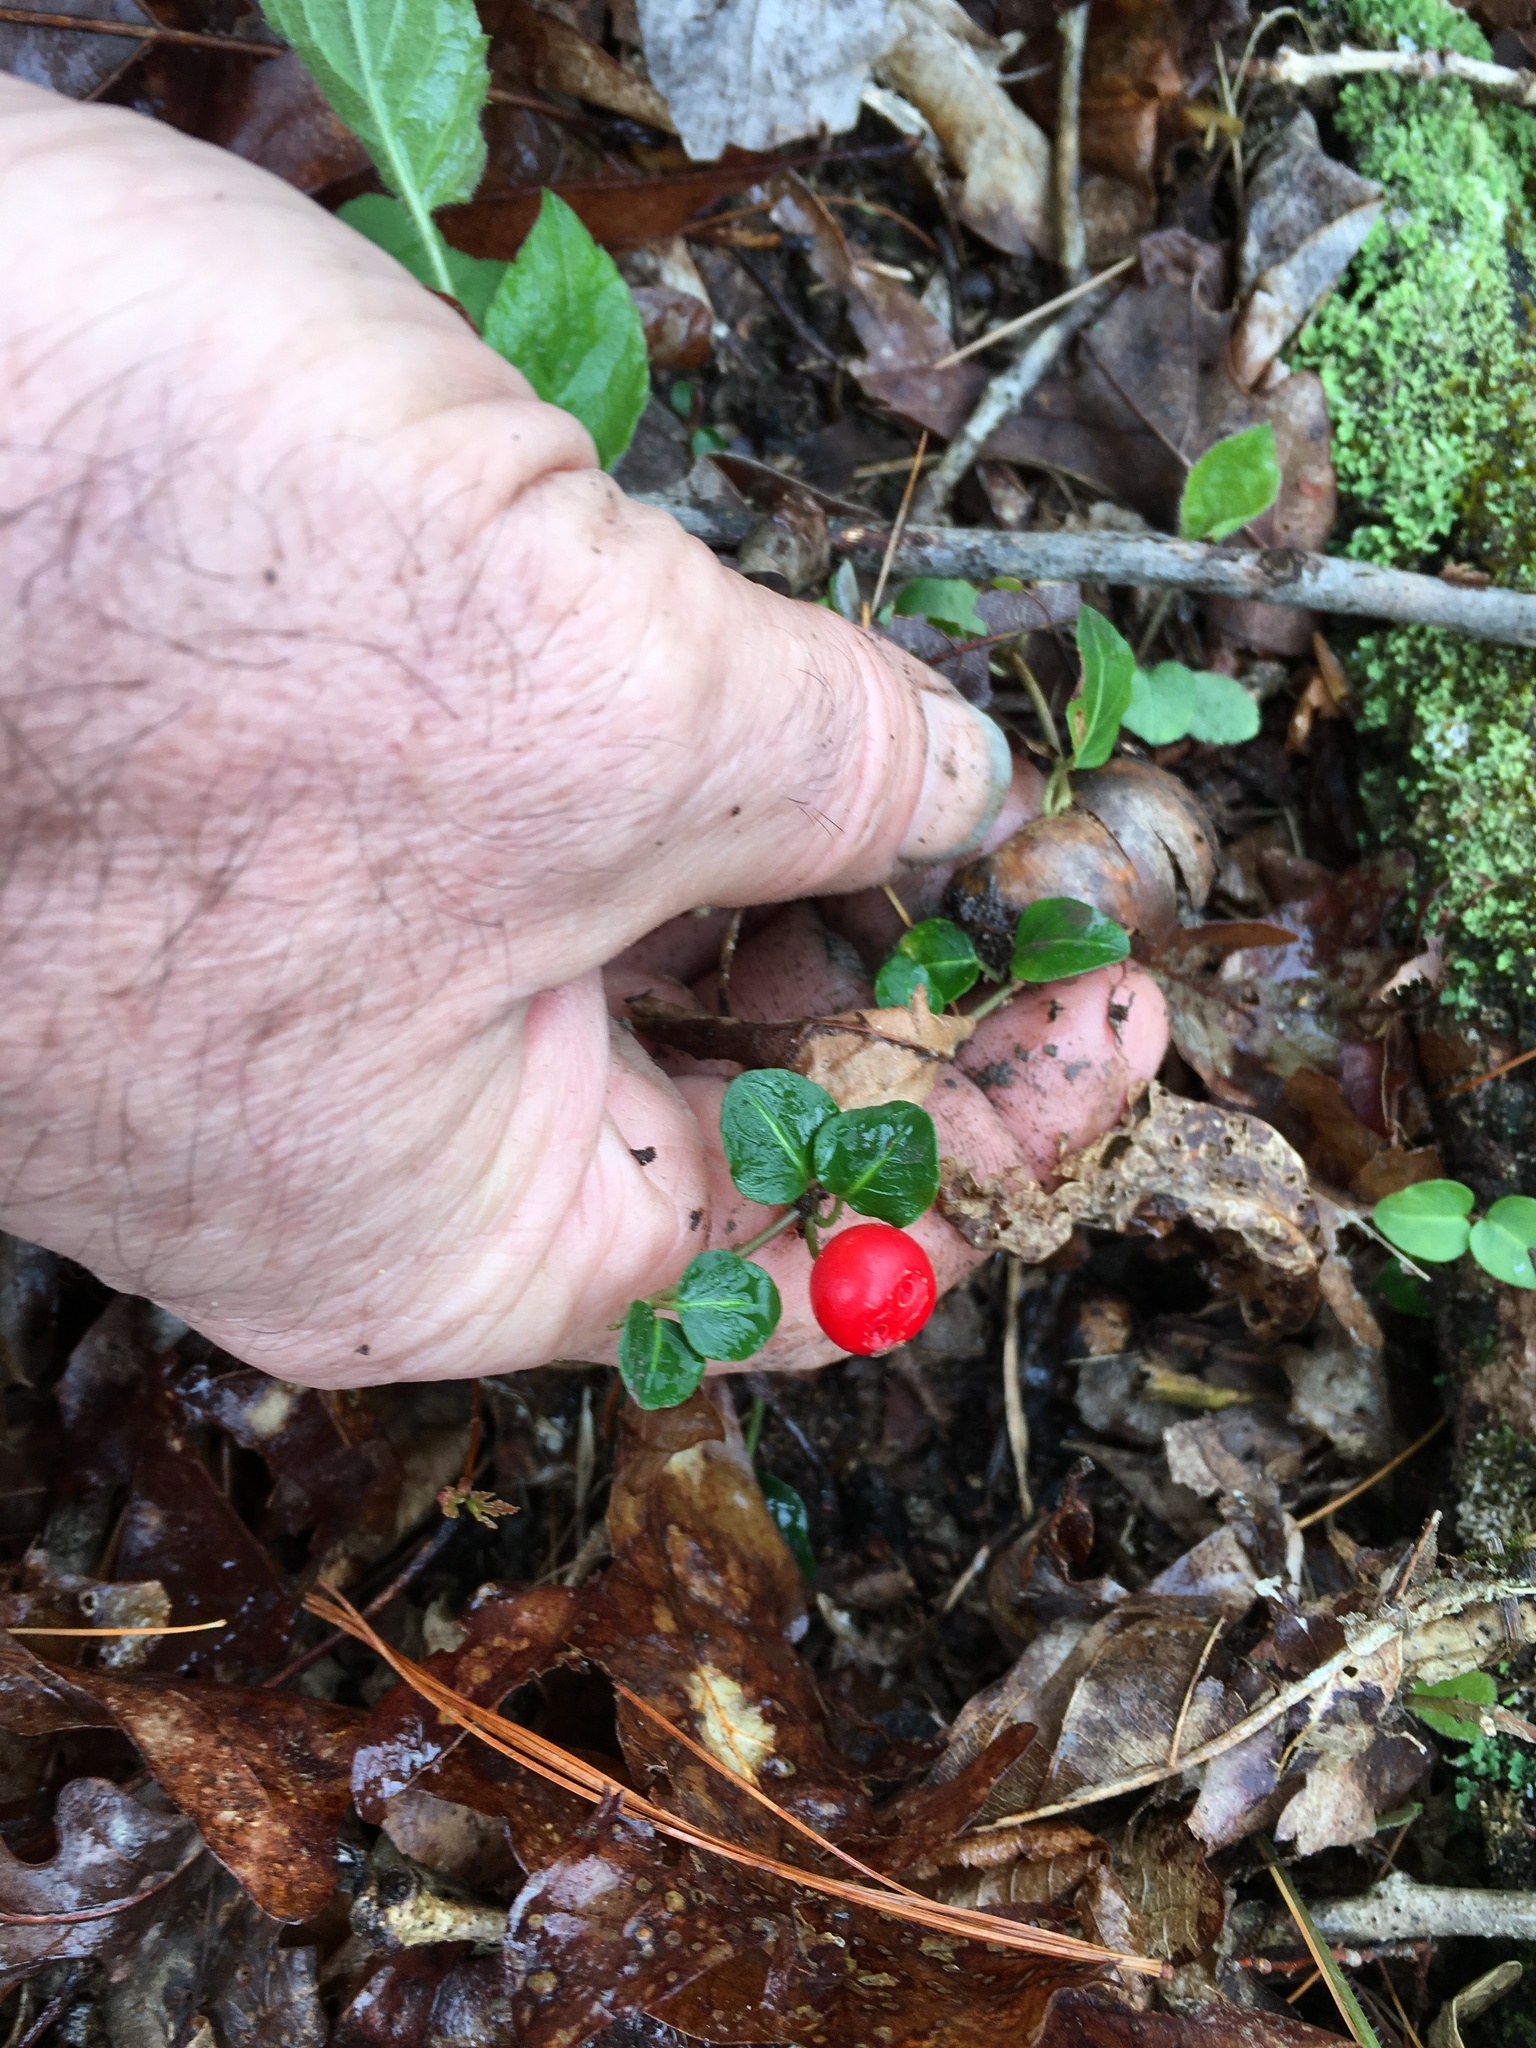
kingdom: Plantae
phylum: Tracheophyta
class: Magnoliopsida
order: Gentianales
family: Rubiaceae
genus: Mitchella
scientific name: Mitchella repens
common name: Partridge-berry
